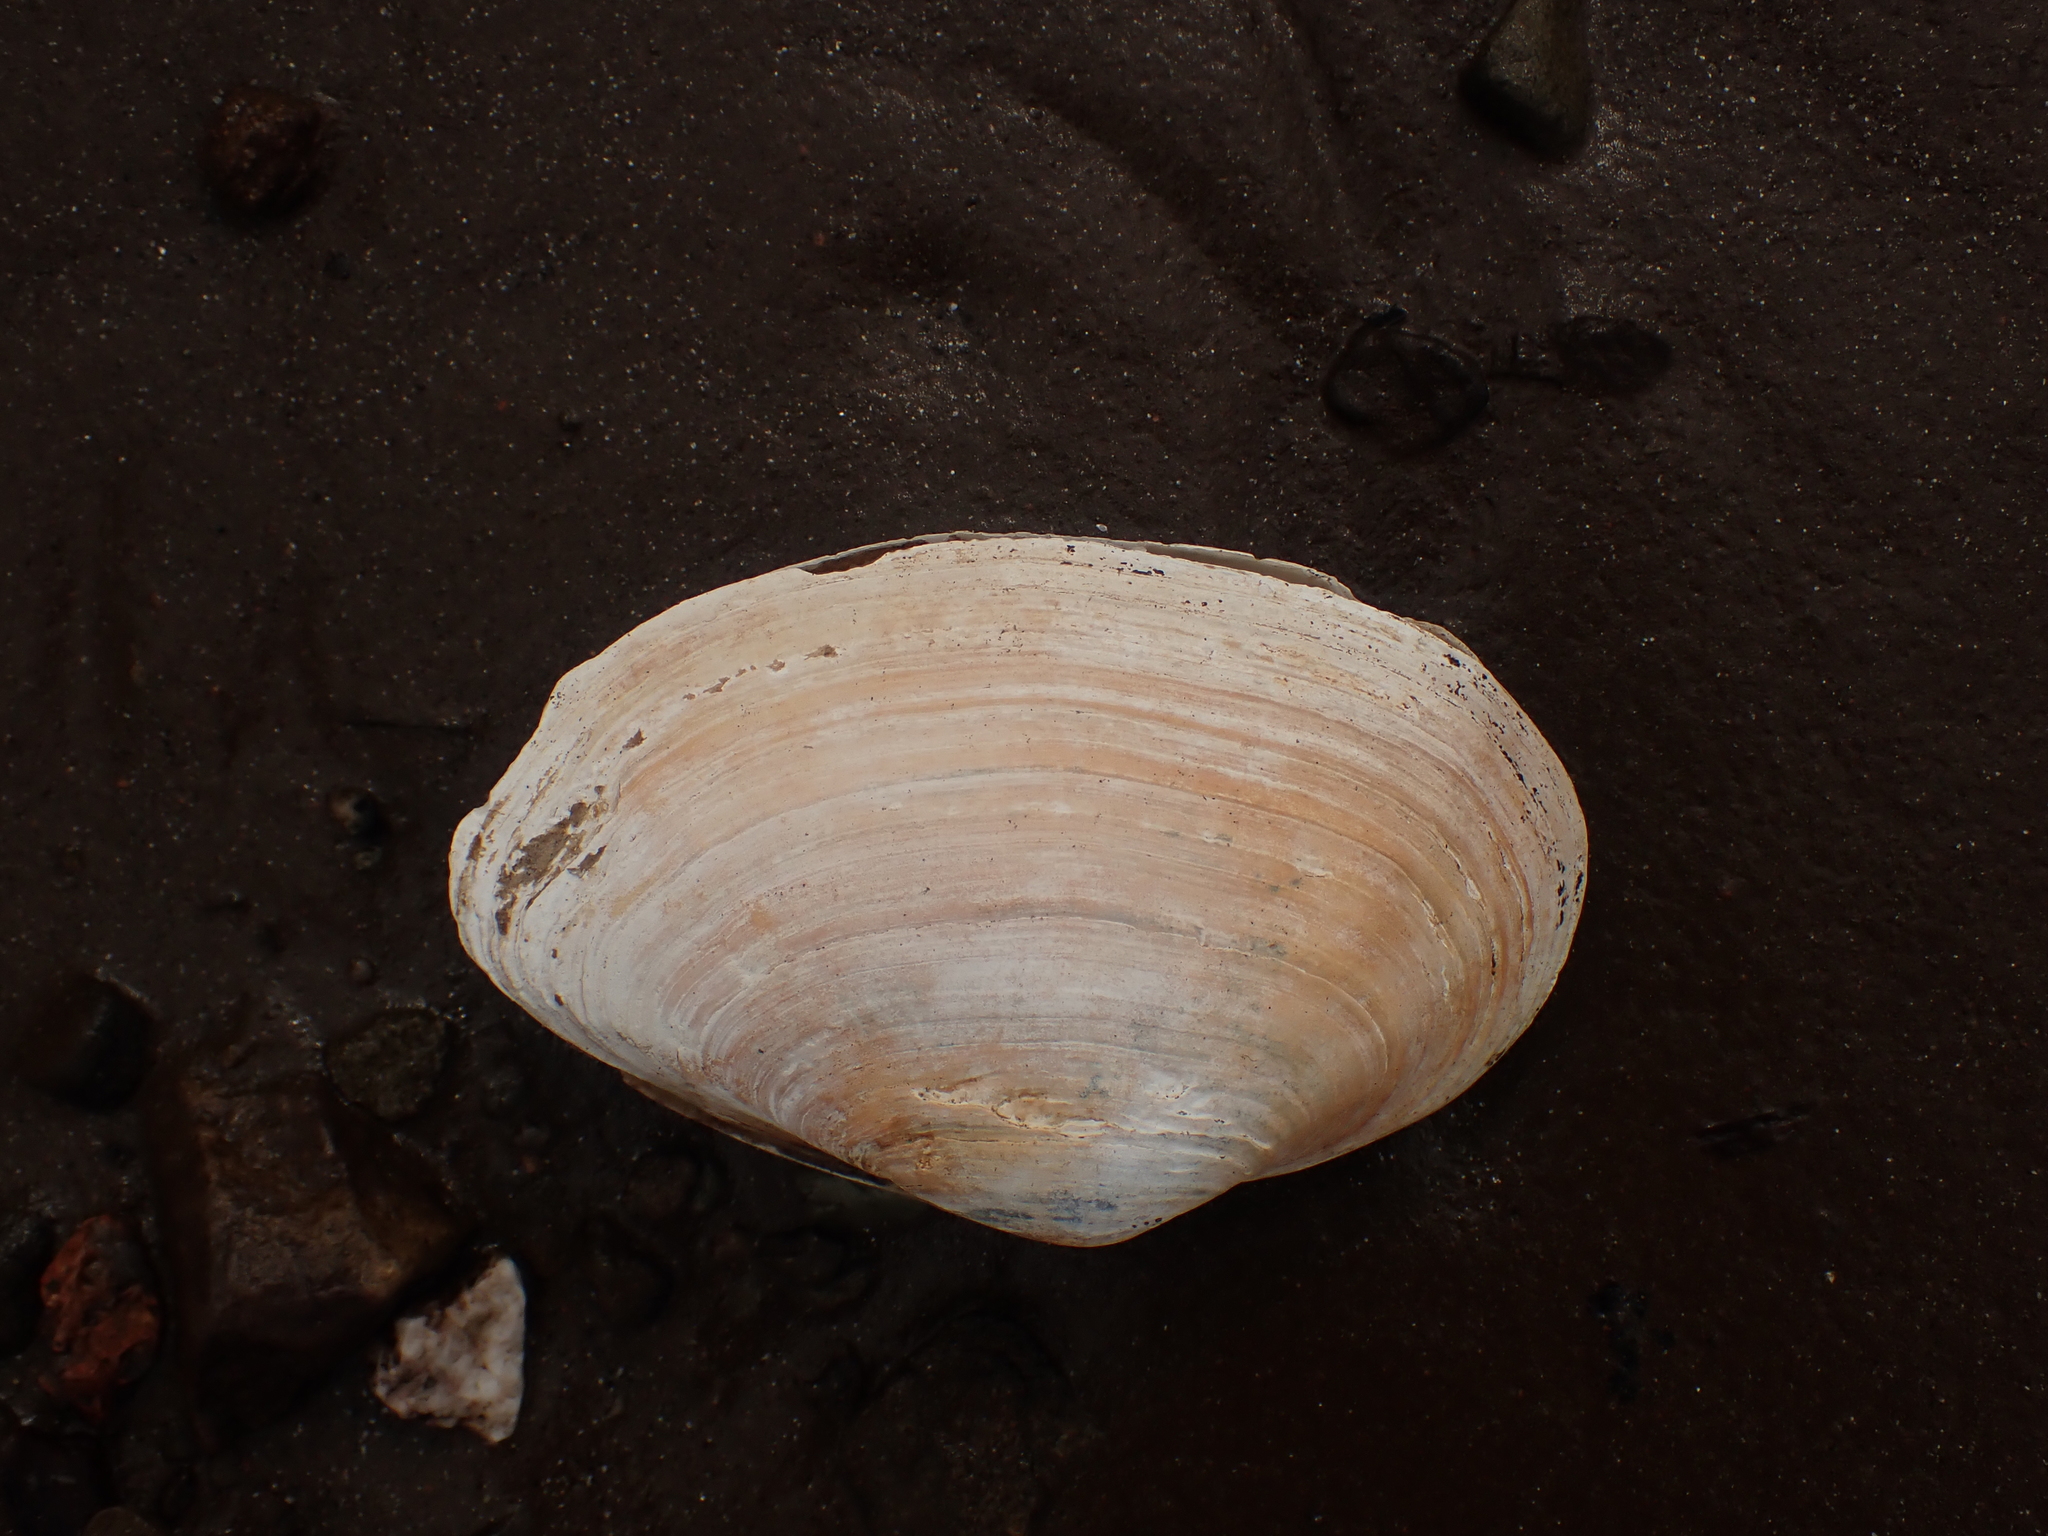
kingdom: Animalia
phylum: Mollusca
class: Bivalvia
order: Myida
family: Myidae
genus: Mya
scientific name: Mya arenaria
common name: Soft-shelled clam
